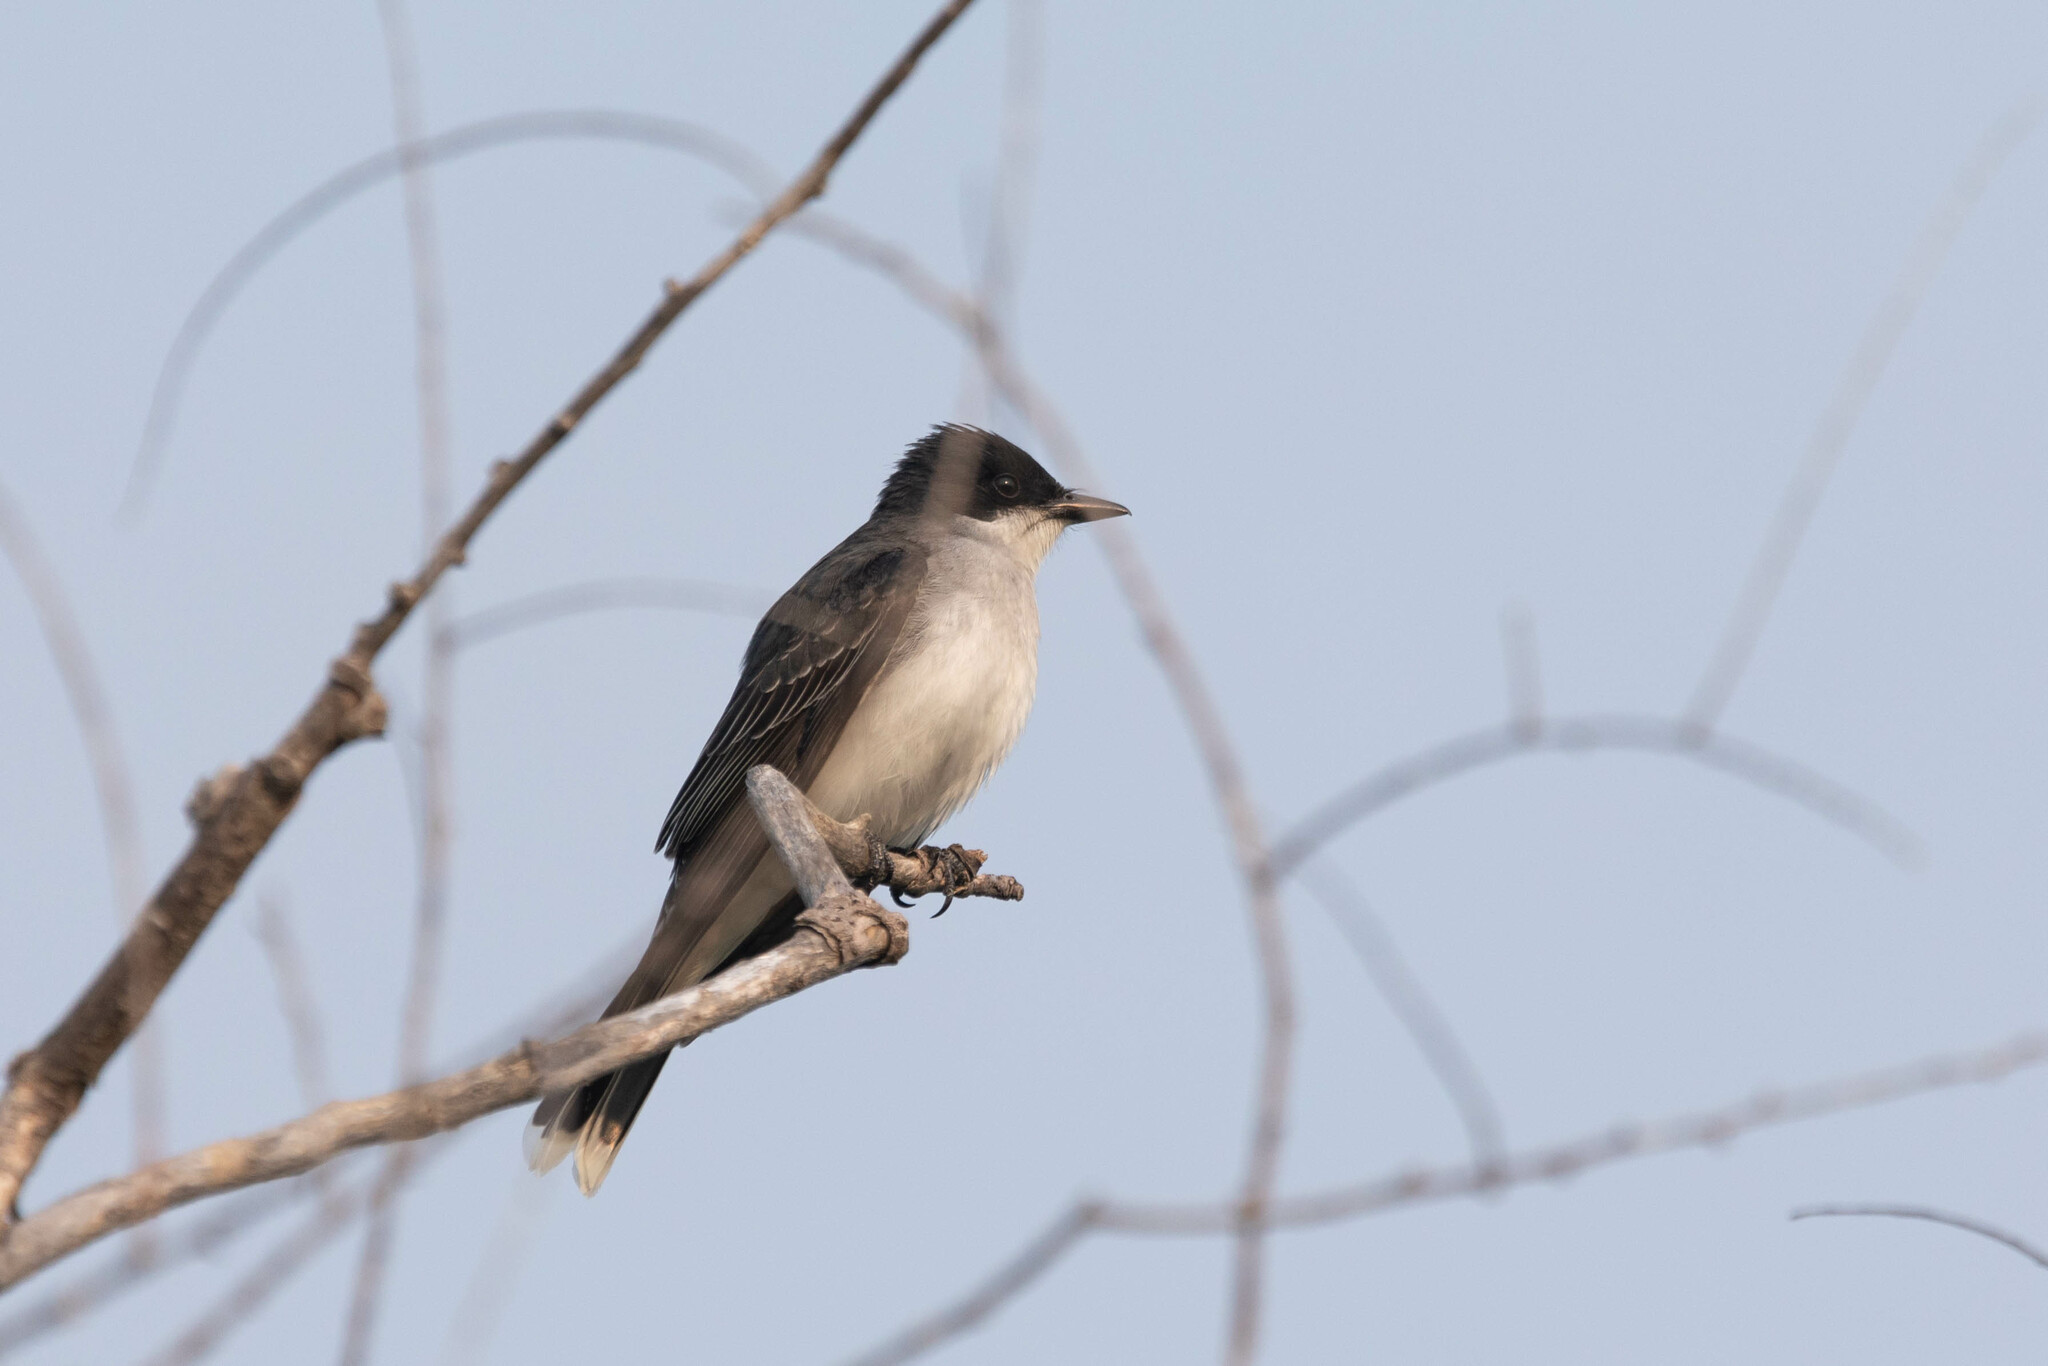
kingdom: Animalia
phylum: Chordata
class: Aves
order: Passeriformes
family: Tyrannidae
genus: Tyrannus
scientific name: Tyrannus tyrannus
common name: Eastern kingbird
